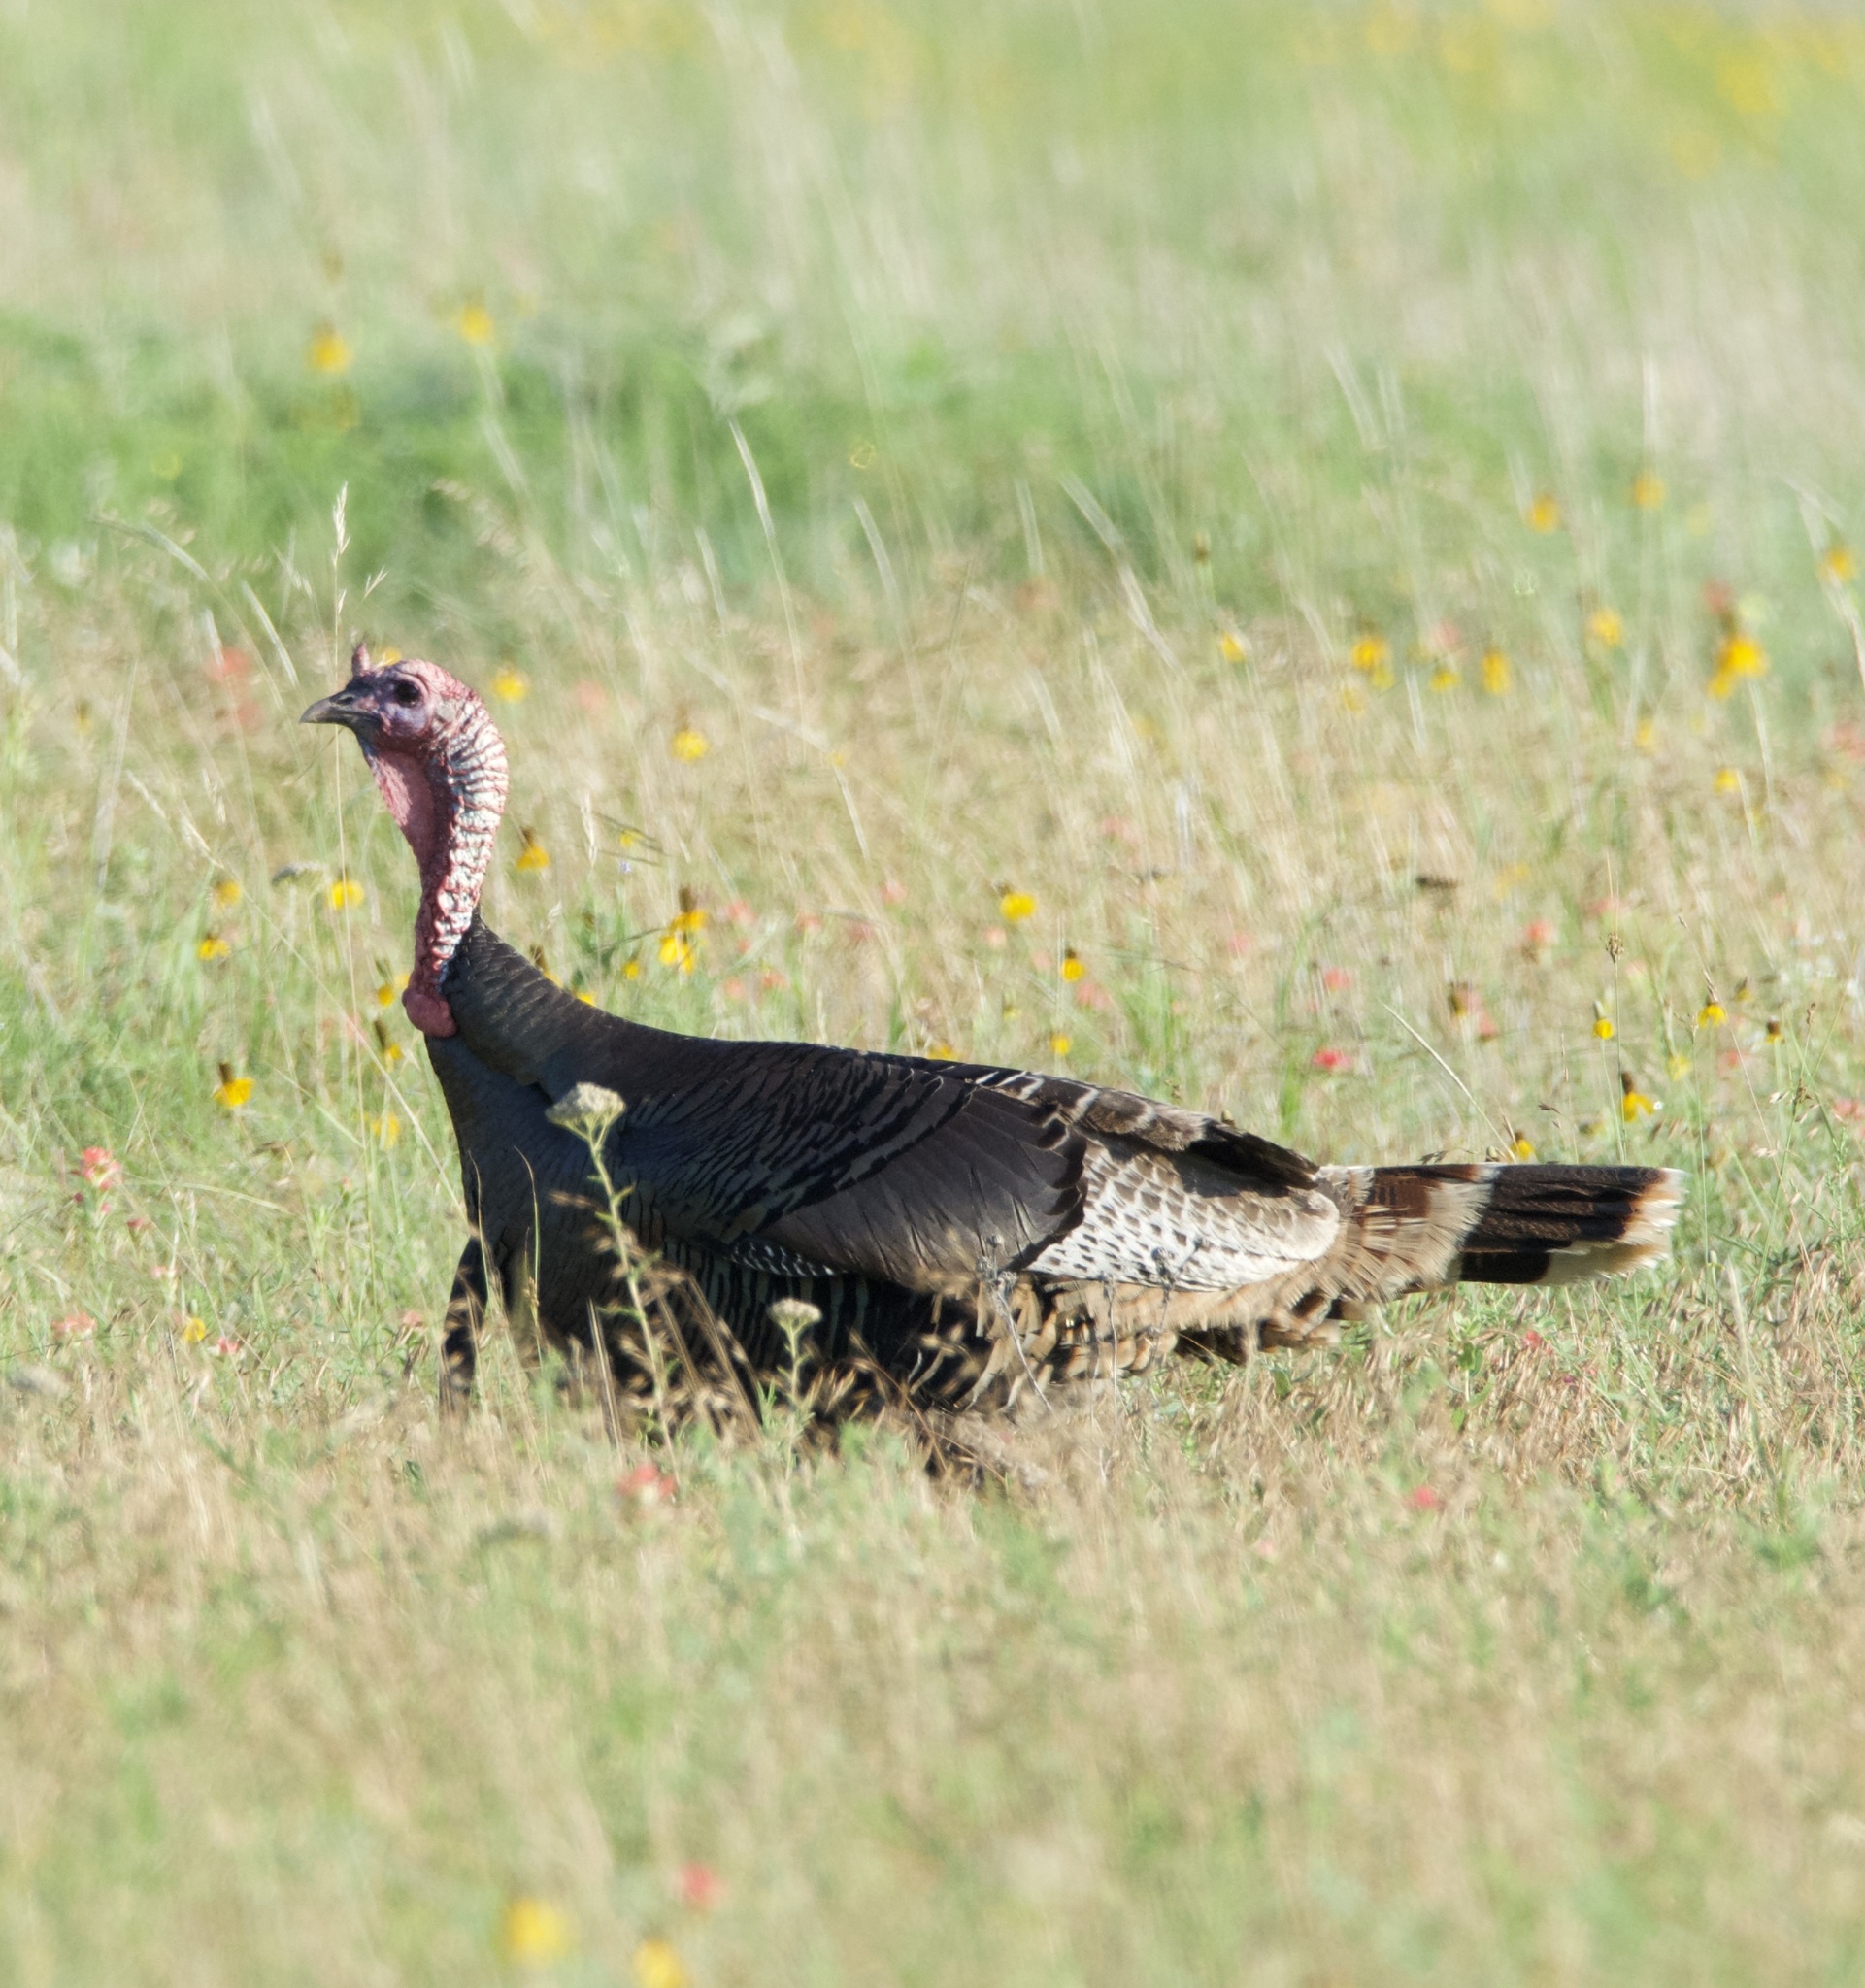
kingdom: Animalia
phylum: Chordata
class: Aves
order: Galliformes
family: Phasianidae
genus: Meleagris
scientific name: Meleagris gallopavo
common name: Wild turkey
